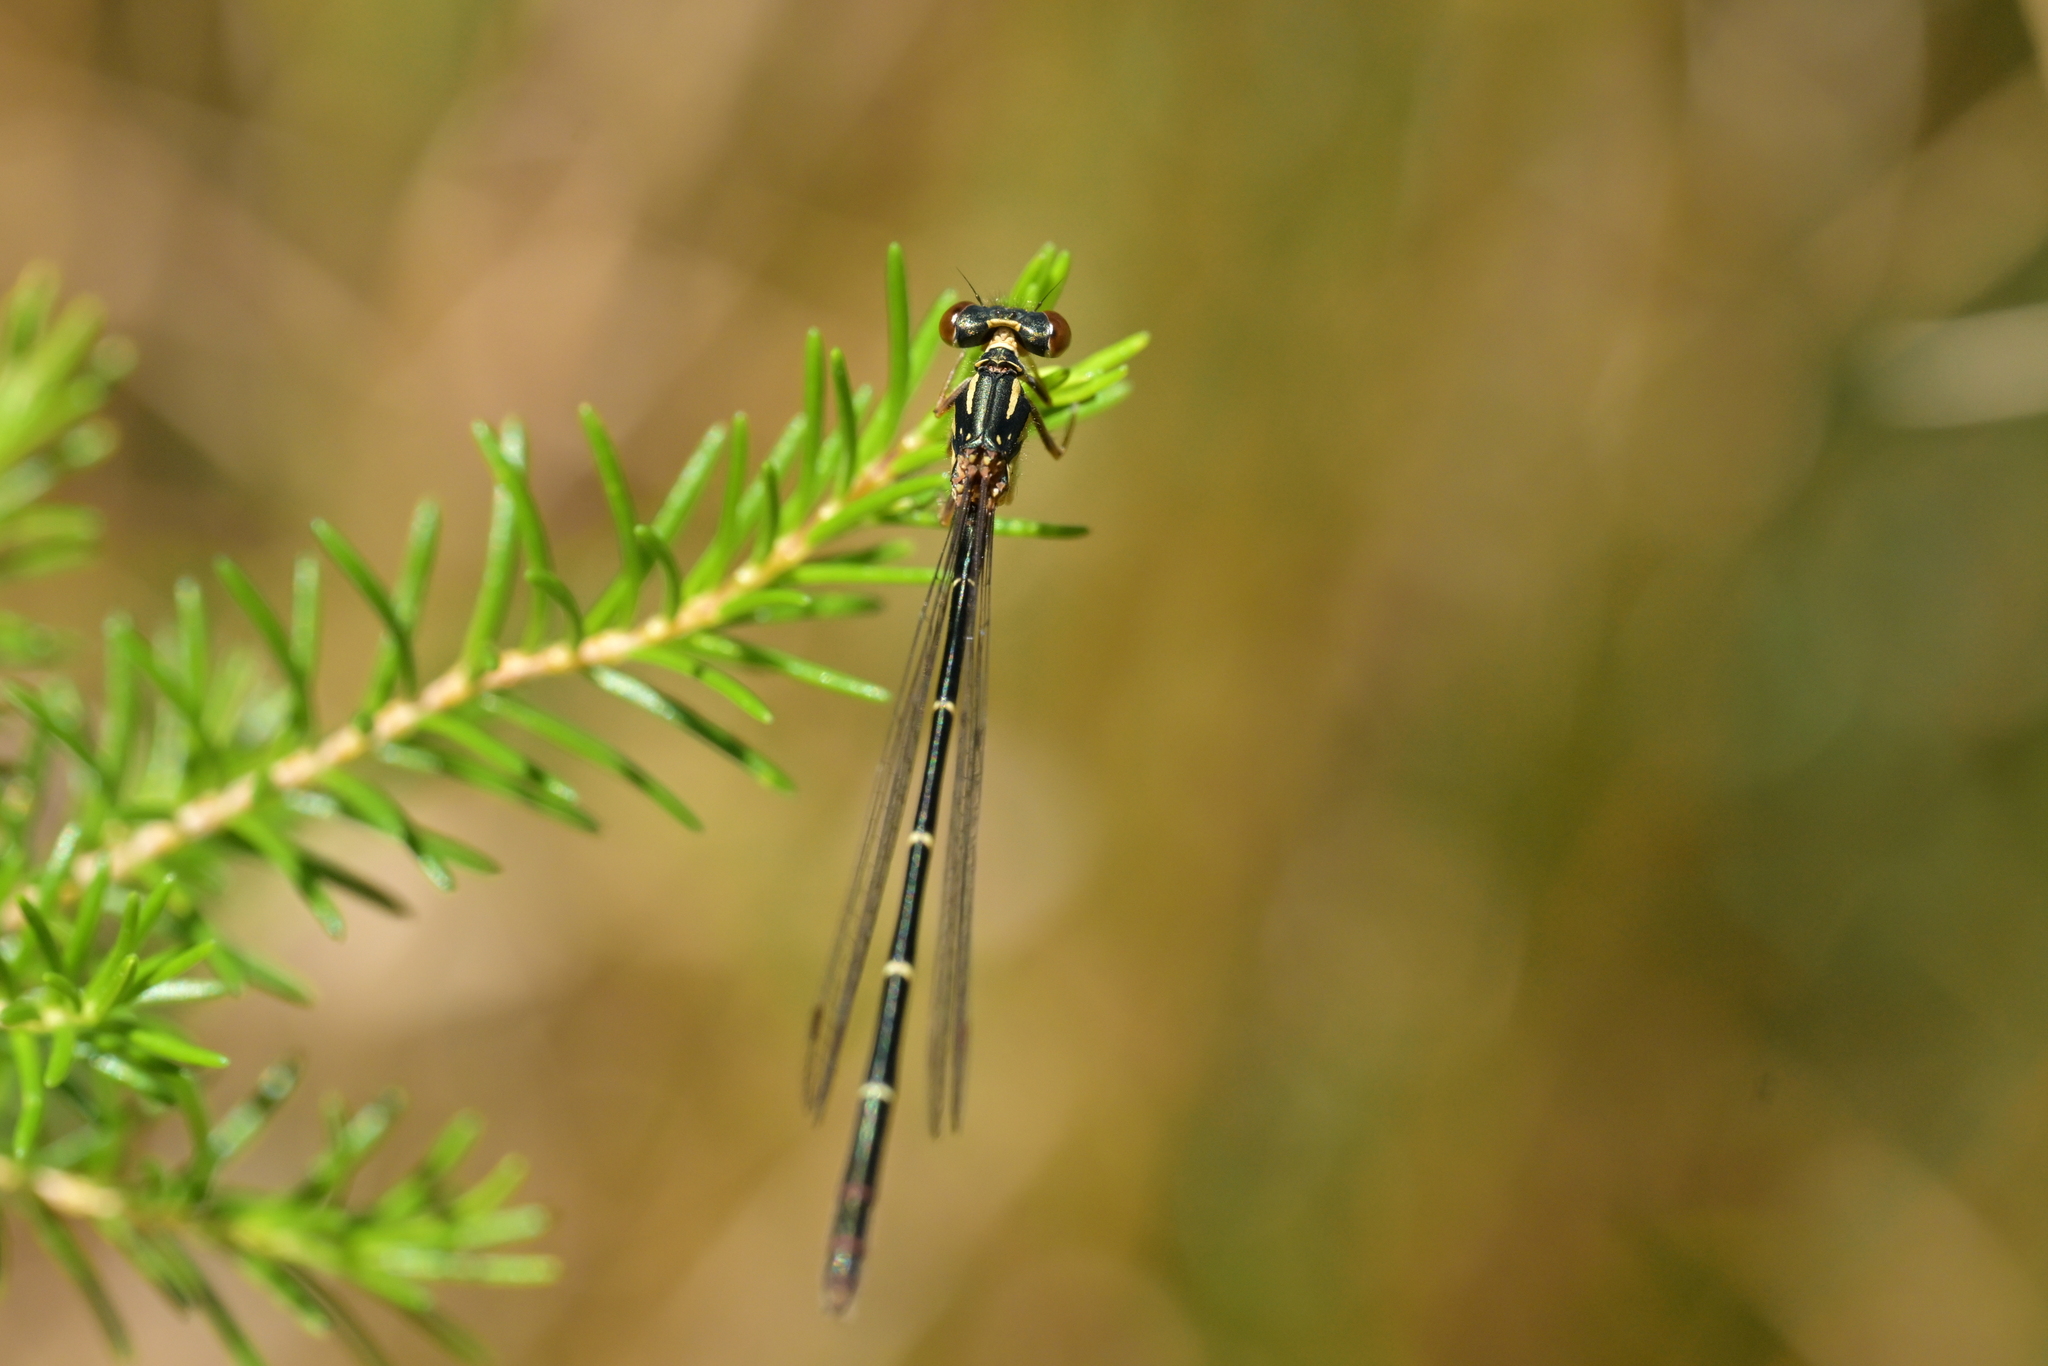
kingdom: Animalia
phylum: Arthropoda
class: Insecta
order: Odonata
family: Coenagrionidae
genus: Xanthocnemis
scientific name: Xanthocnemis zealandica
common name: Common redcoat damselfly
